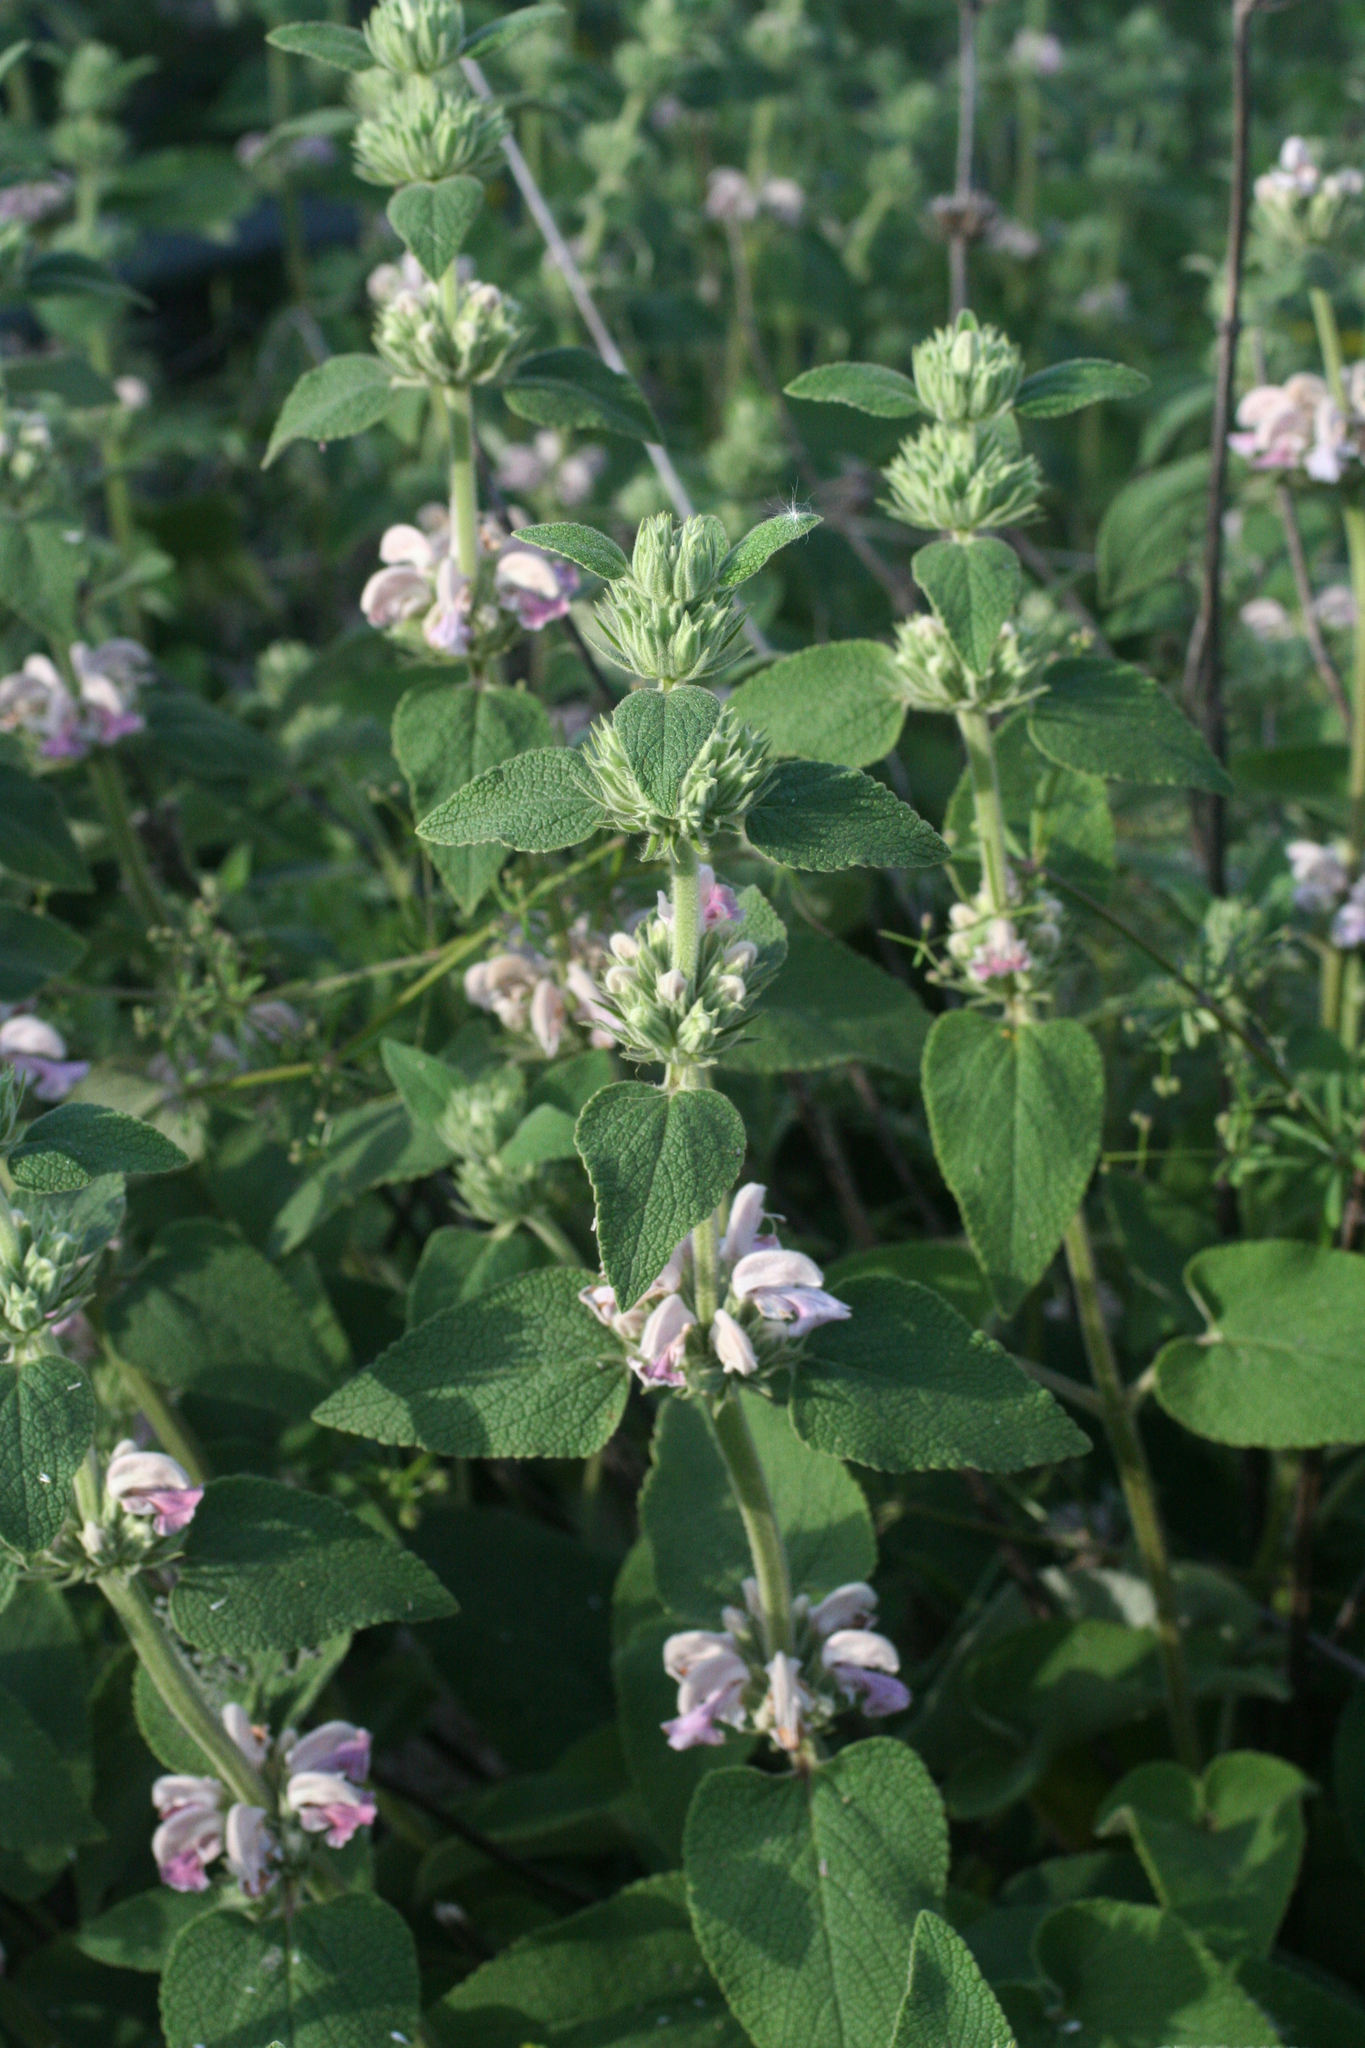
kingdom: Plantae
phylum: Tracheophyta
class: Magnoliopsida
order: Lamiales
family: Lamiaceae
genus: Phlomis
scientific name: Phlomis bovei
